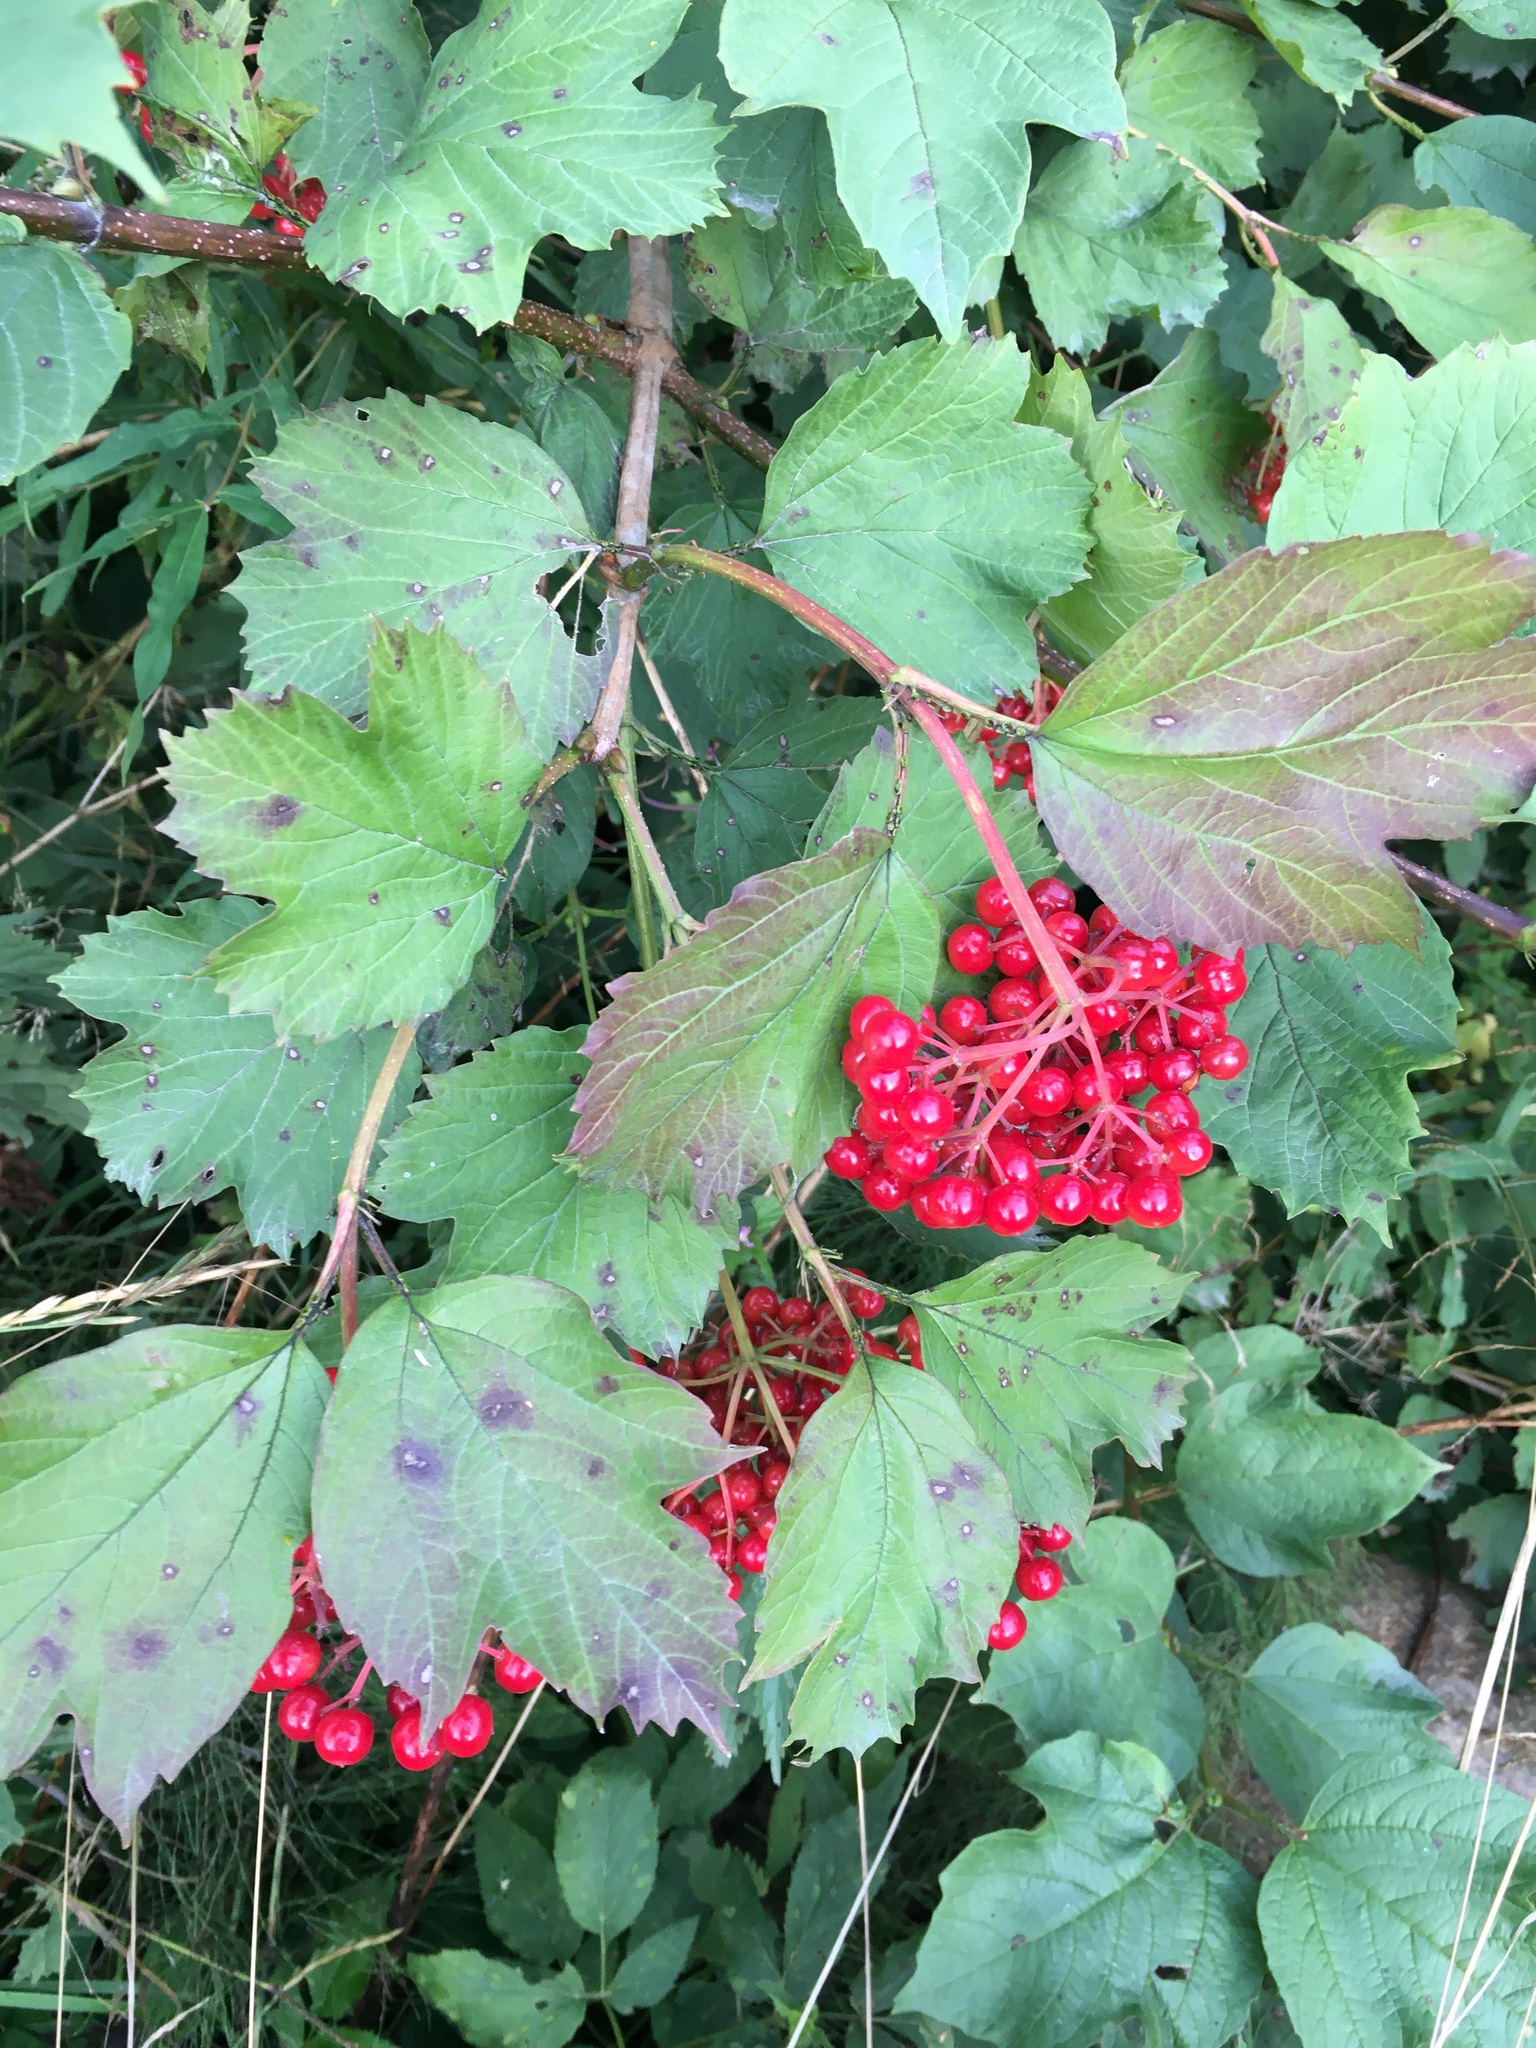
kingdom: Plantae
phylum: Tracheophyta
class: Magnoliopsida
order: Dipsacales
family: Viburnaceae
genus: Viburnum
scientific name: Viburnum opulus
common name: Guelder-rose
